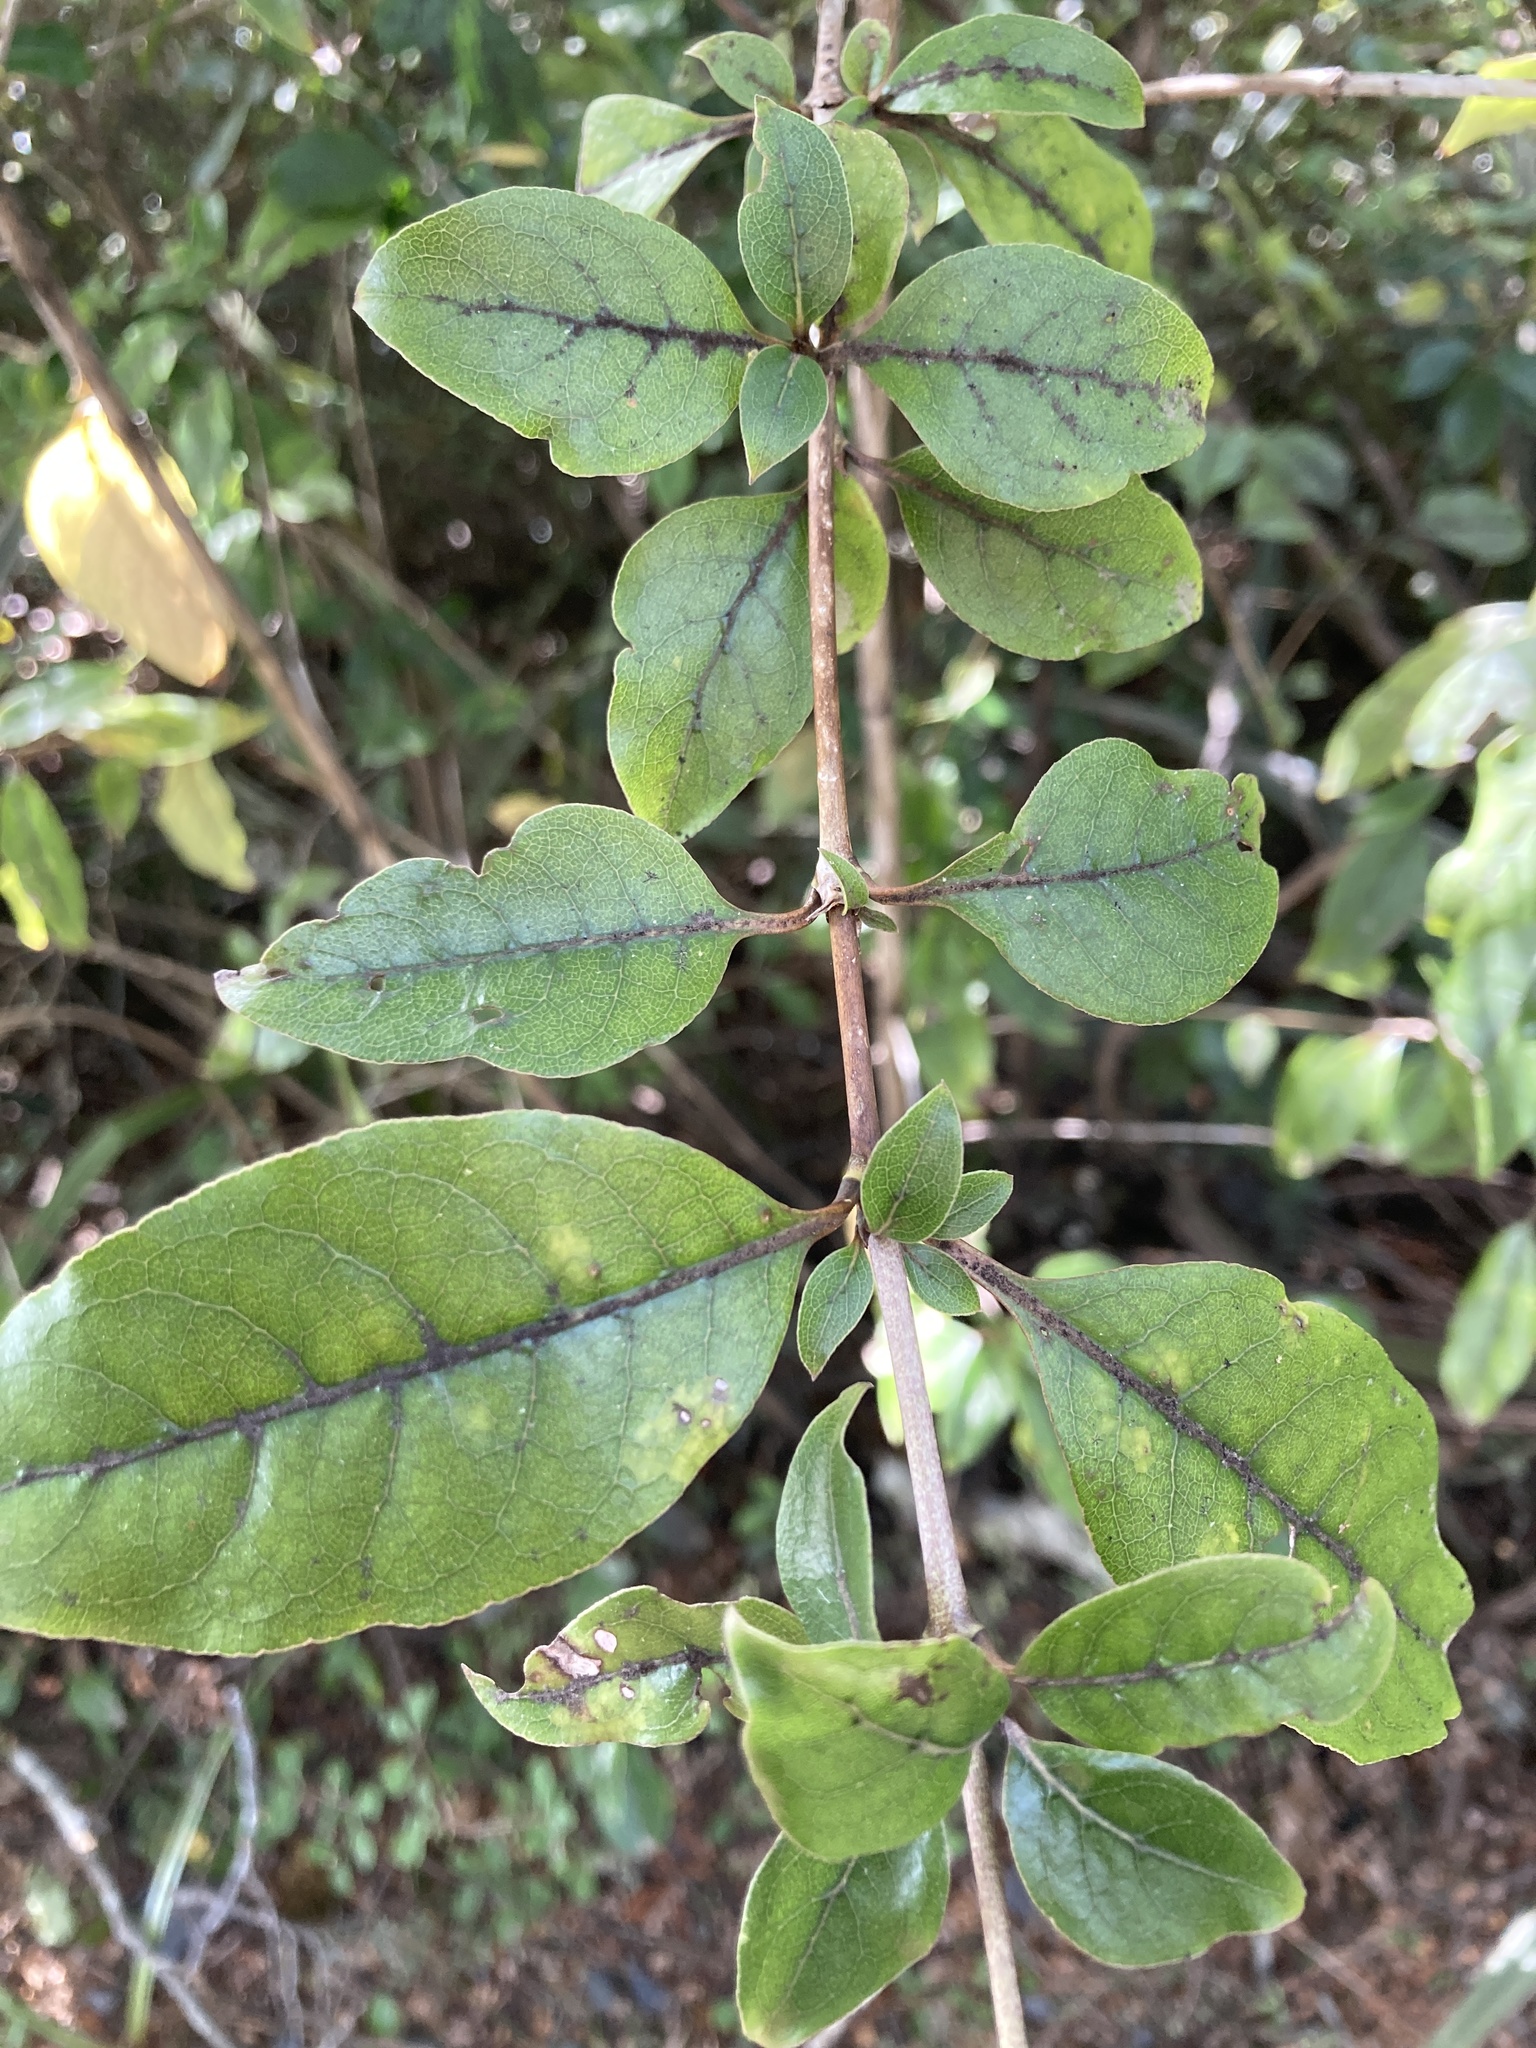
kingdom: Plantae
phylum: Tracheophyta
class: Magnoliopsida
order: Gentianales
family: Rubiaceae
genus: Coprosma
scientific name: Coprosma tenuifolia
